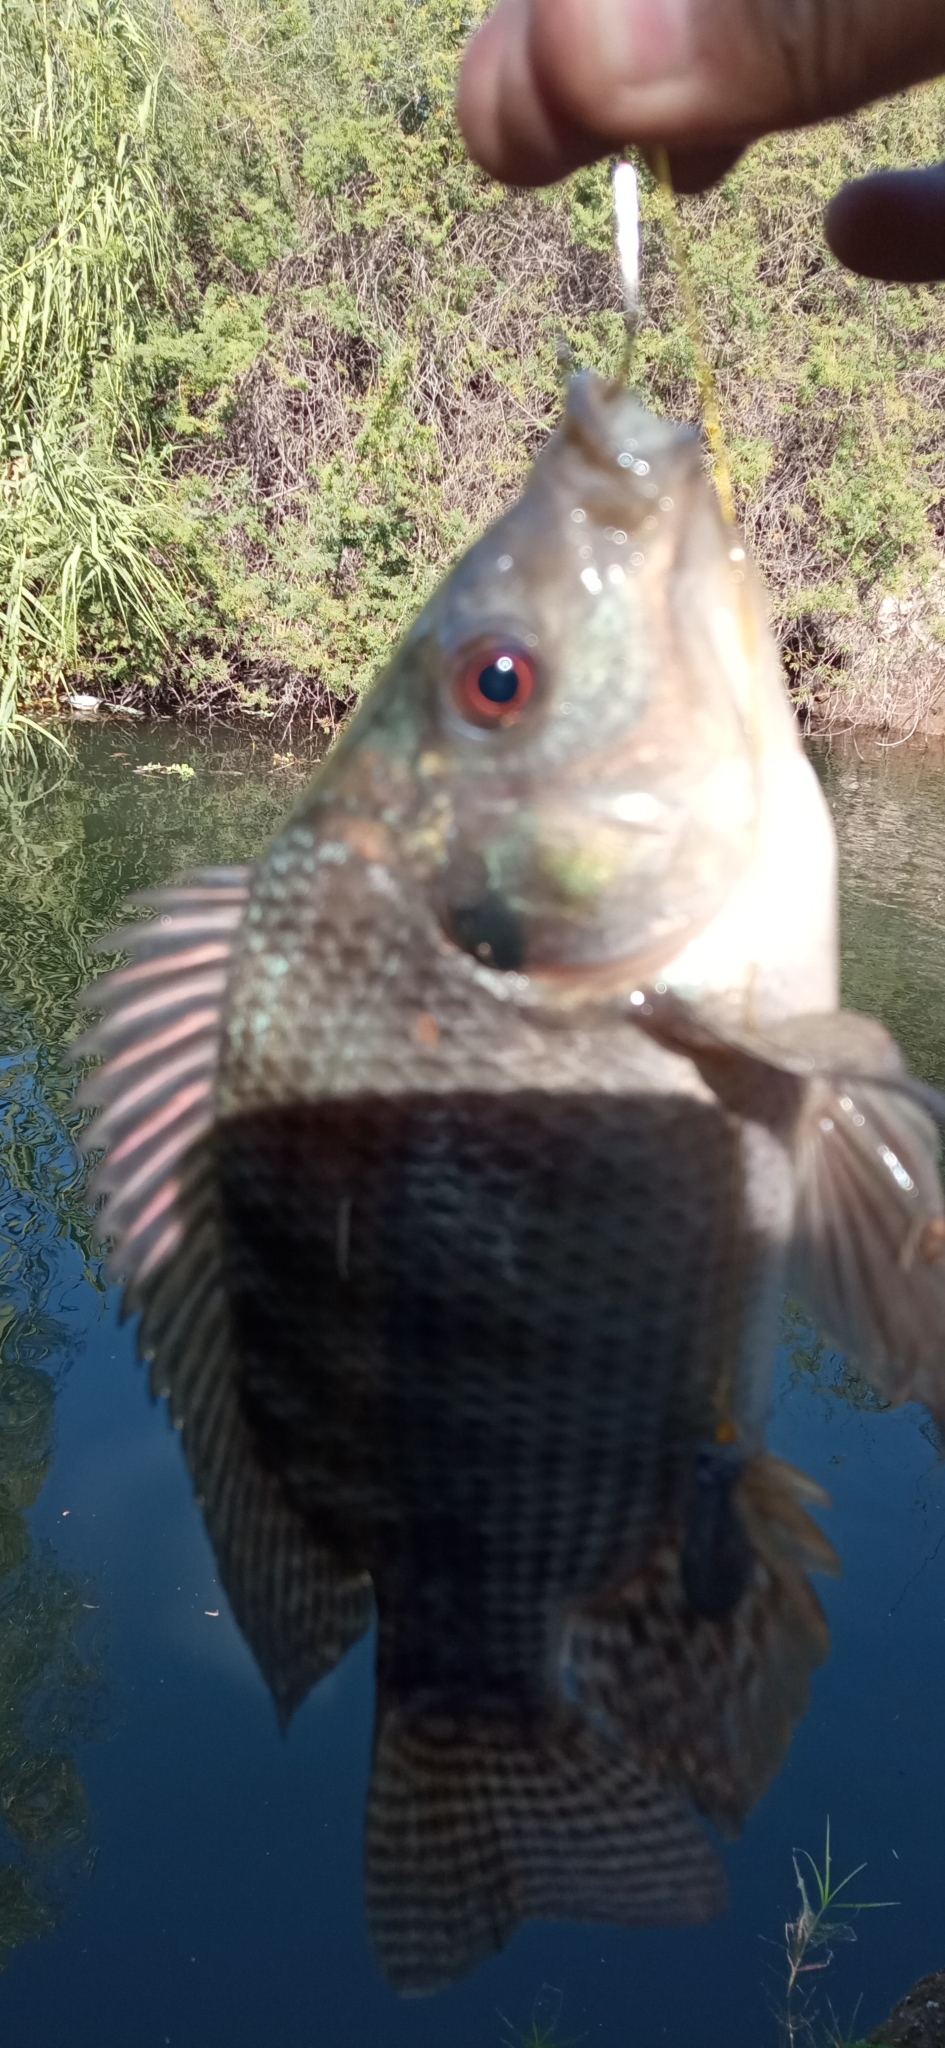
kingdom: Animalia
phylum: Chordata
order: Perciformes
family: Cichlidae
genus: Oreochromis
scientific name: Oreochromis niloticus
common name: Nile tilapia
